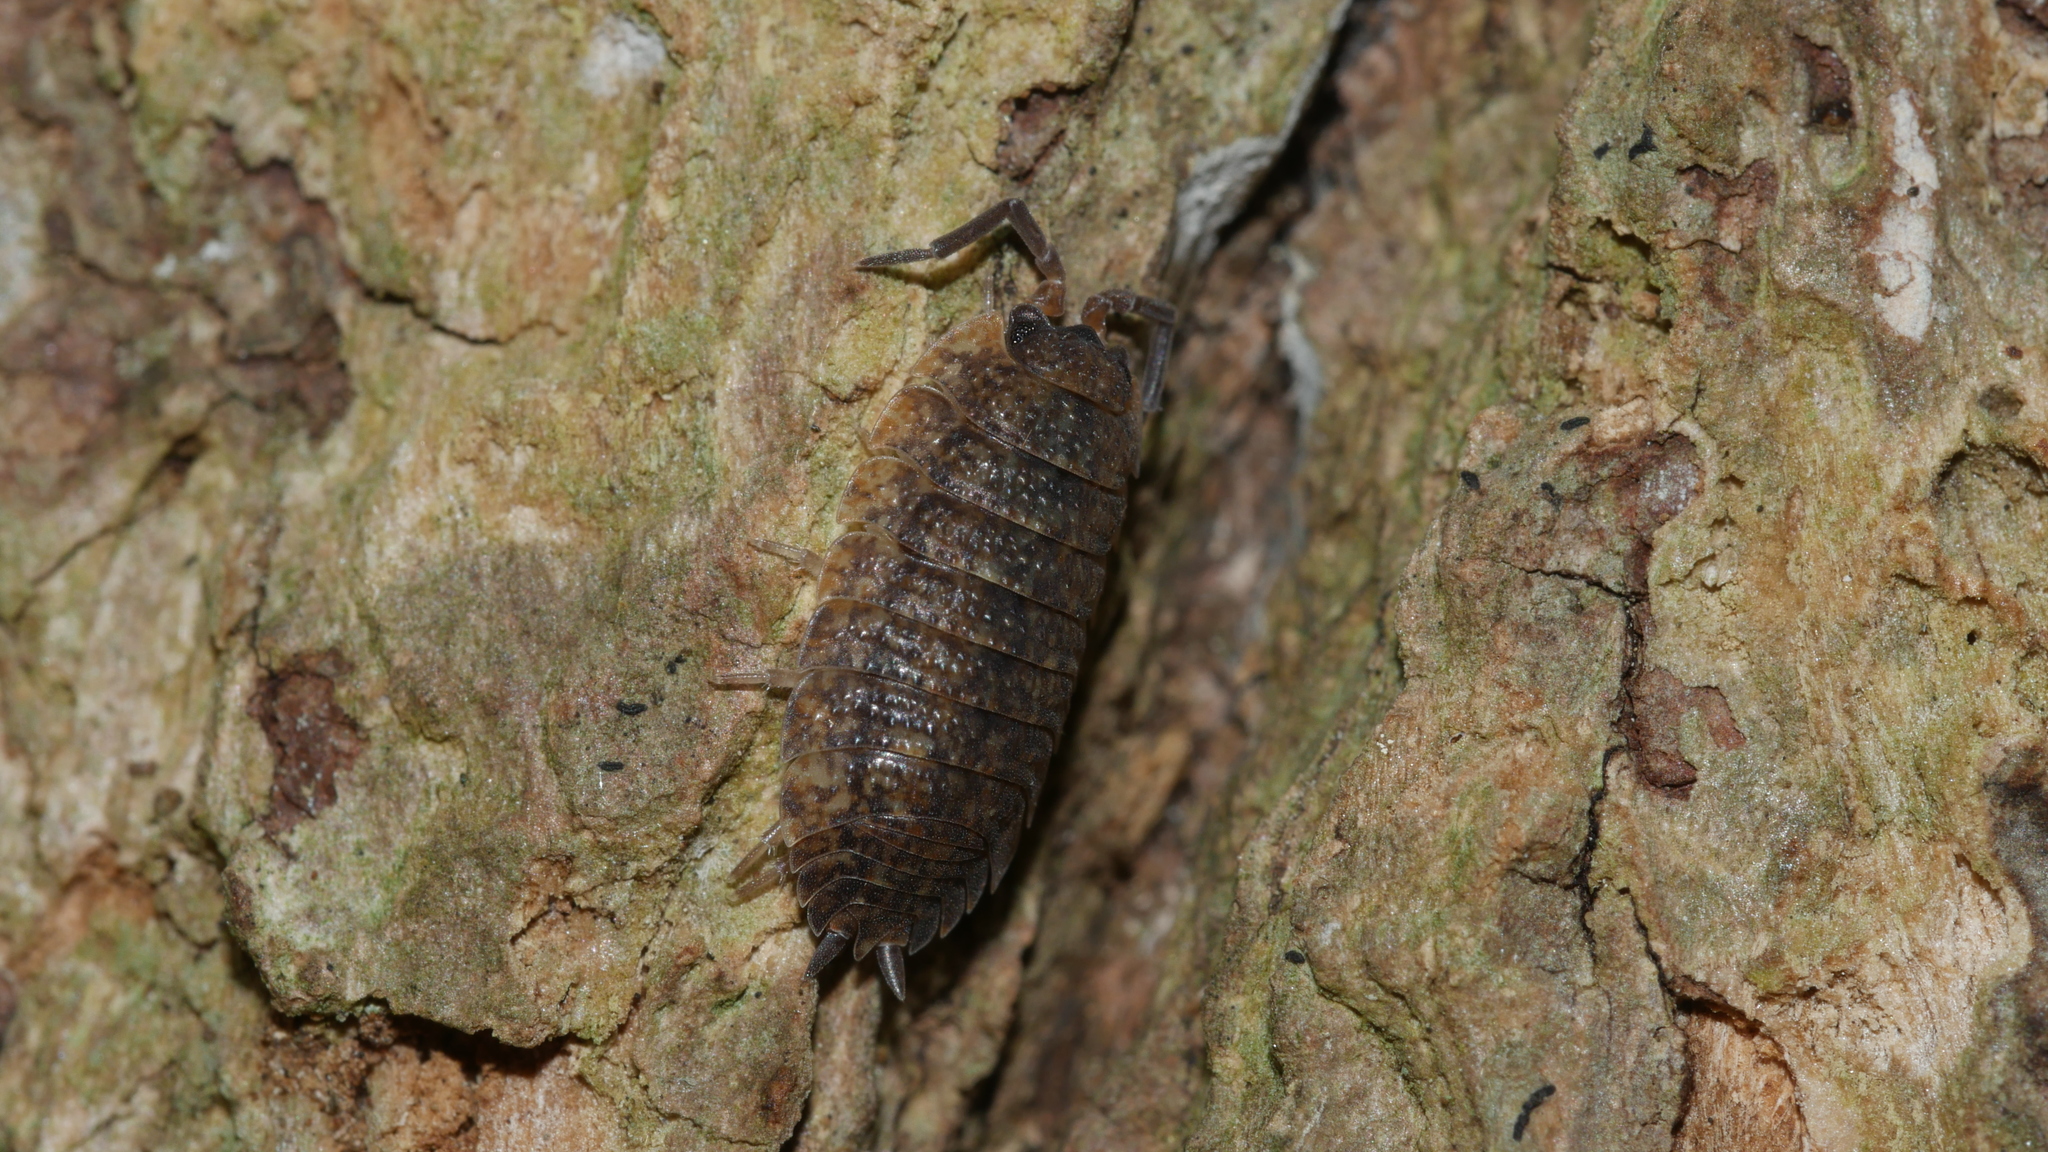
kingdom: Animalia
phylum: Arthropoda
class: Malacostraca
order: Isopoda
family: Porcellionidae
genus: Porcellio
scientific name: Porcellio scaber
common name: Common rough woodlouse
